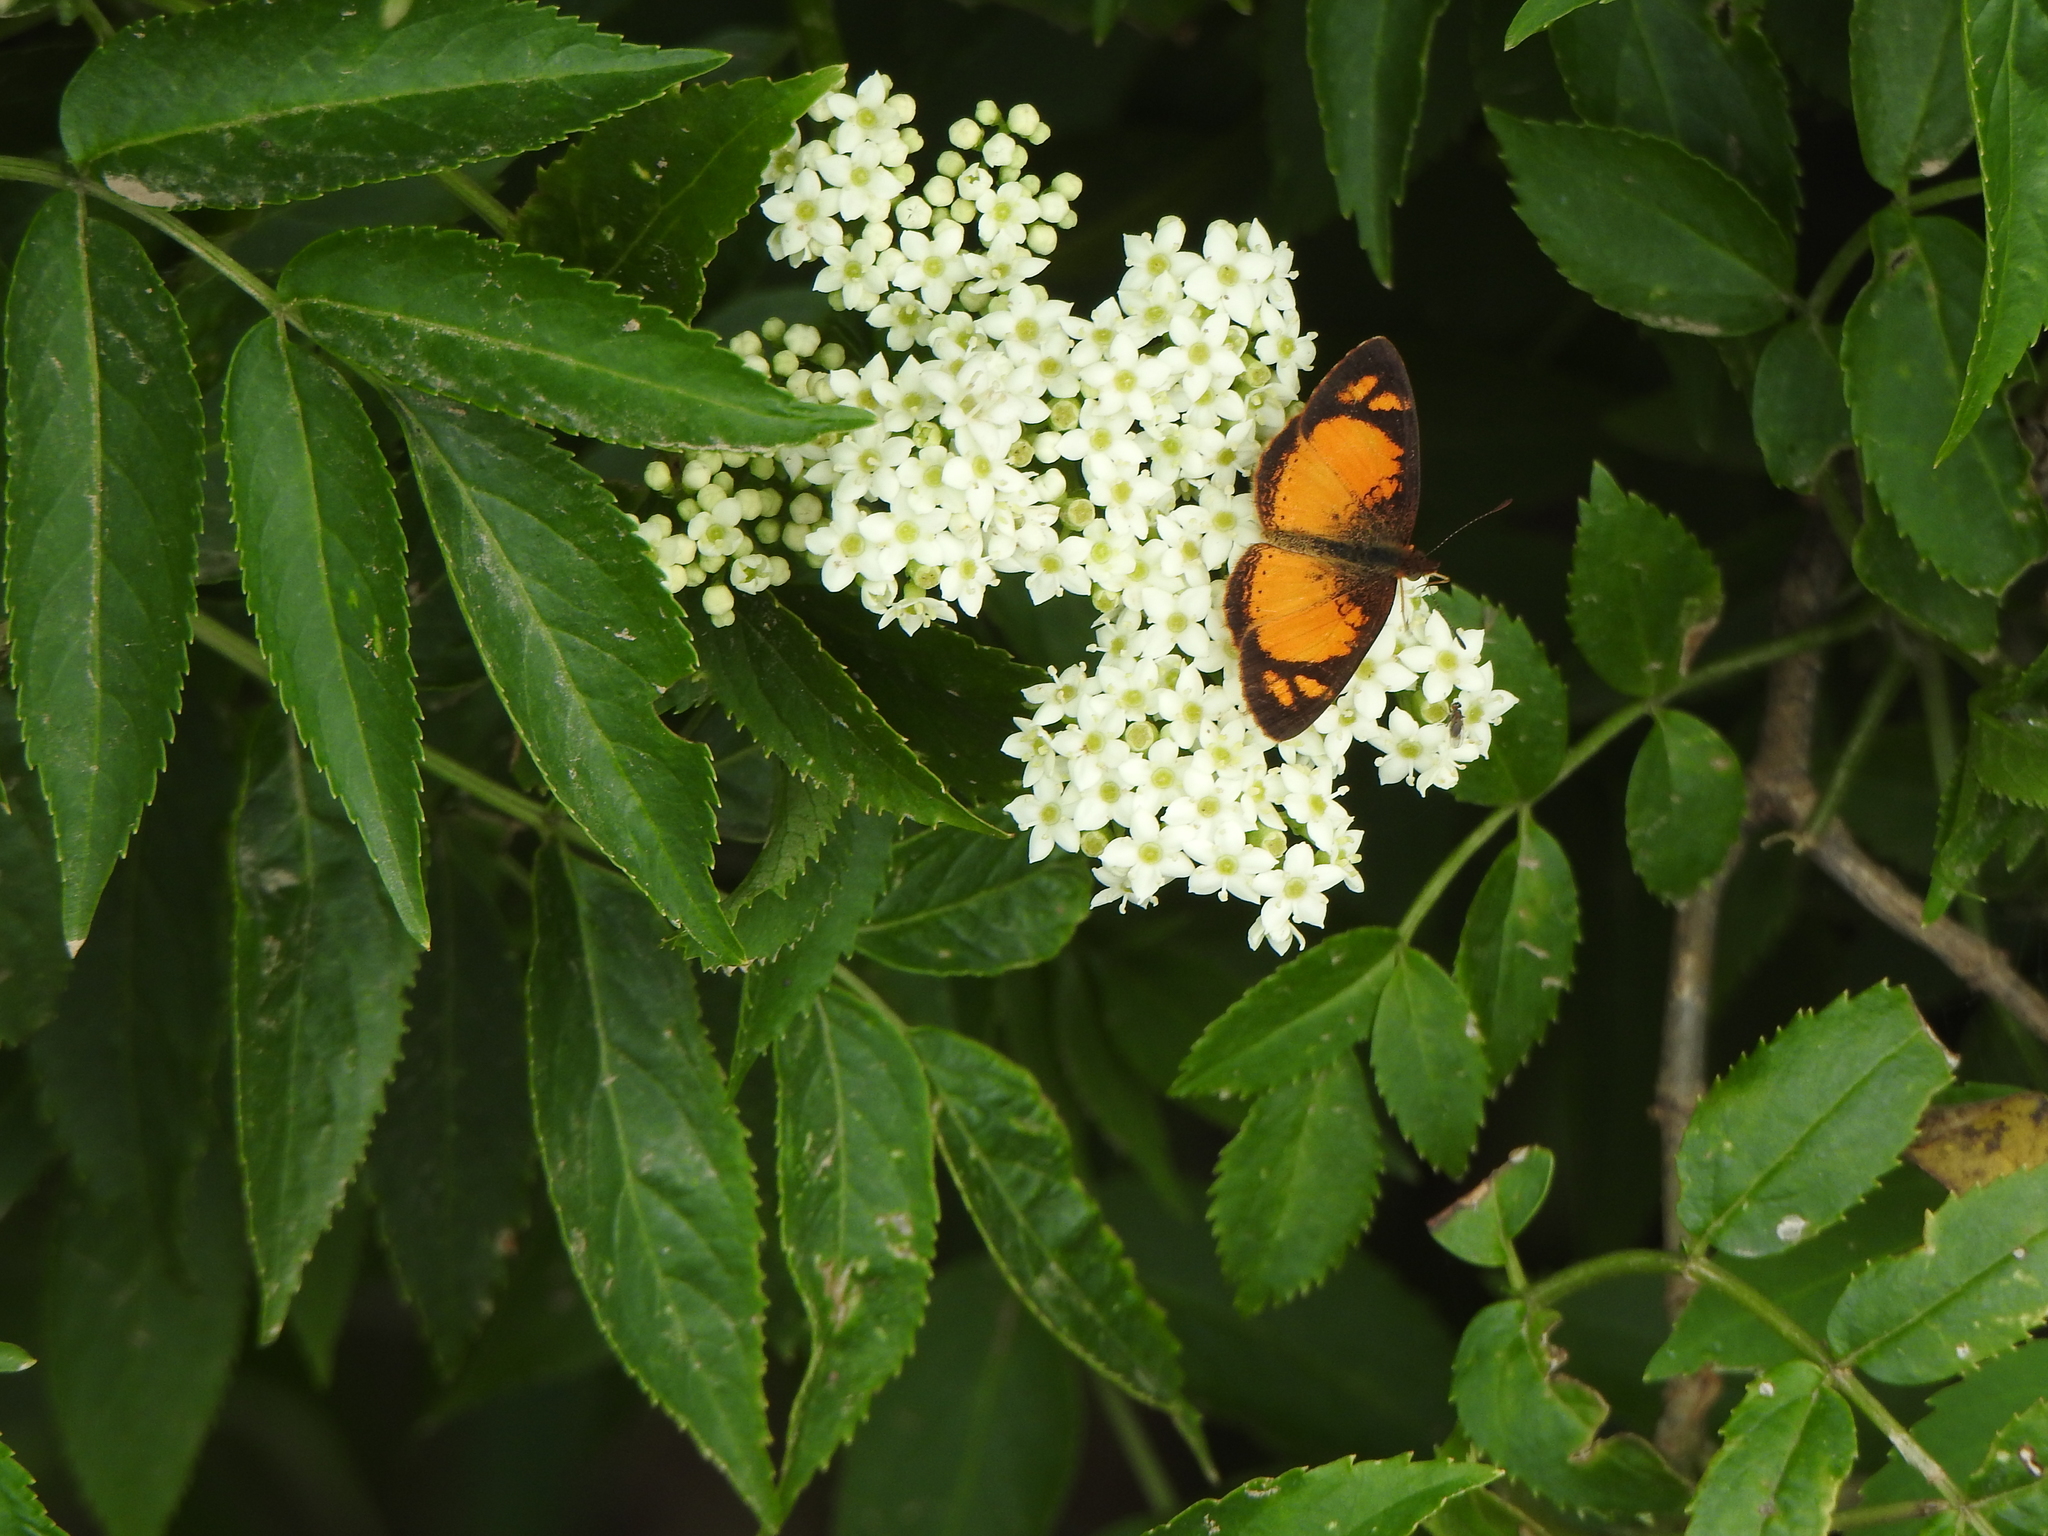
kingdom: Animalia
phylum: Arthropoda
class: Insecta
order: Lepidoptera
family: Nymphalidae
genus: Tegosa
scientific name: Tegosa claudina
